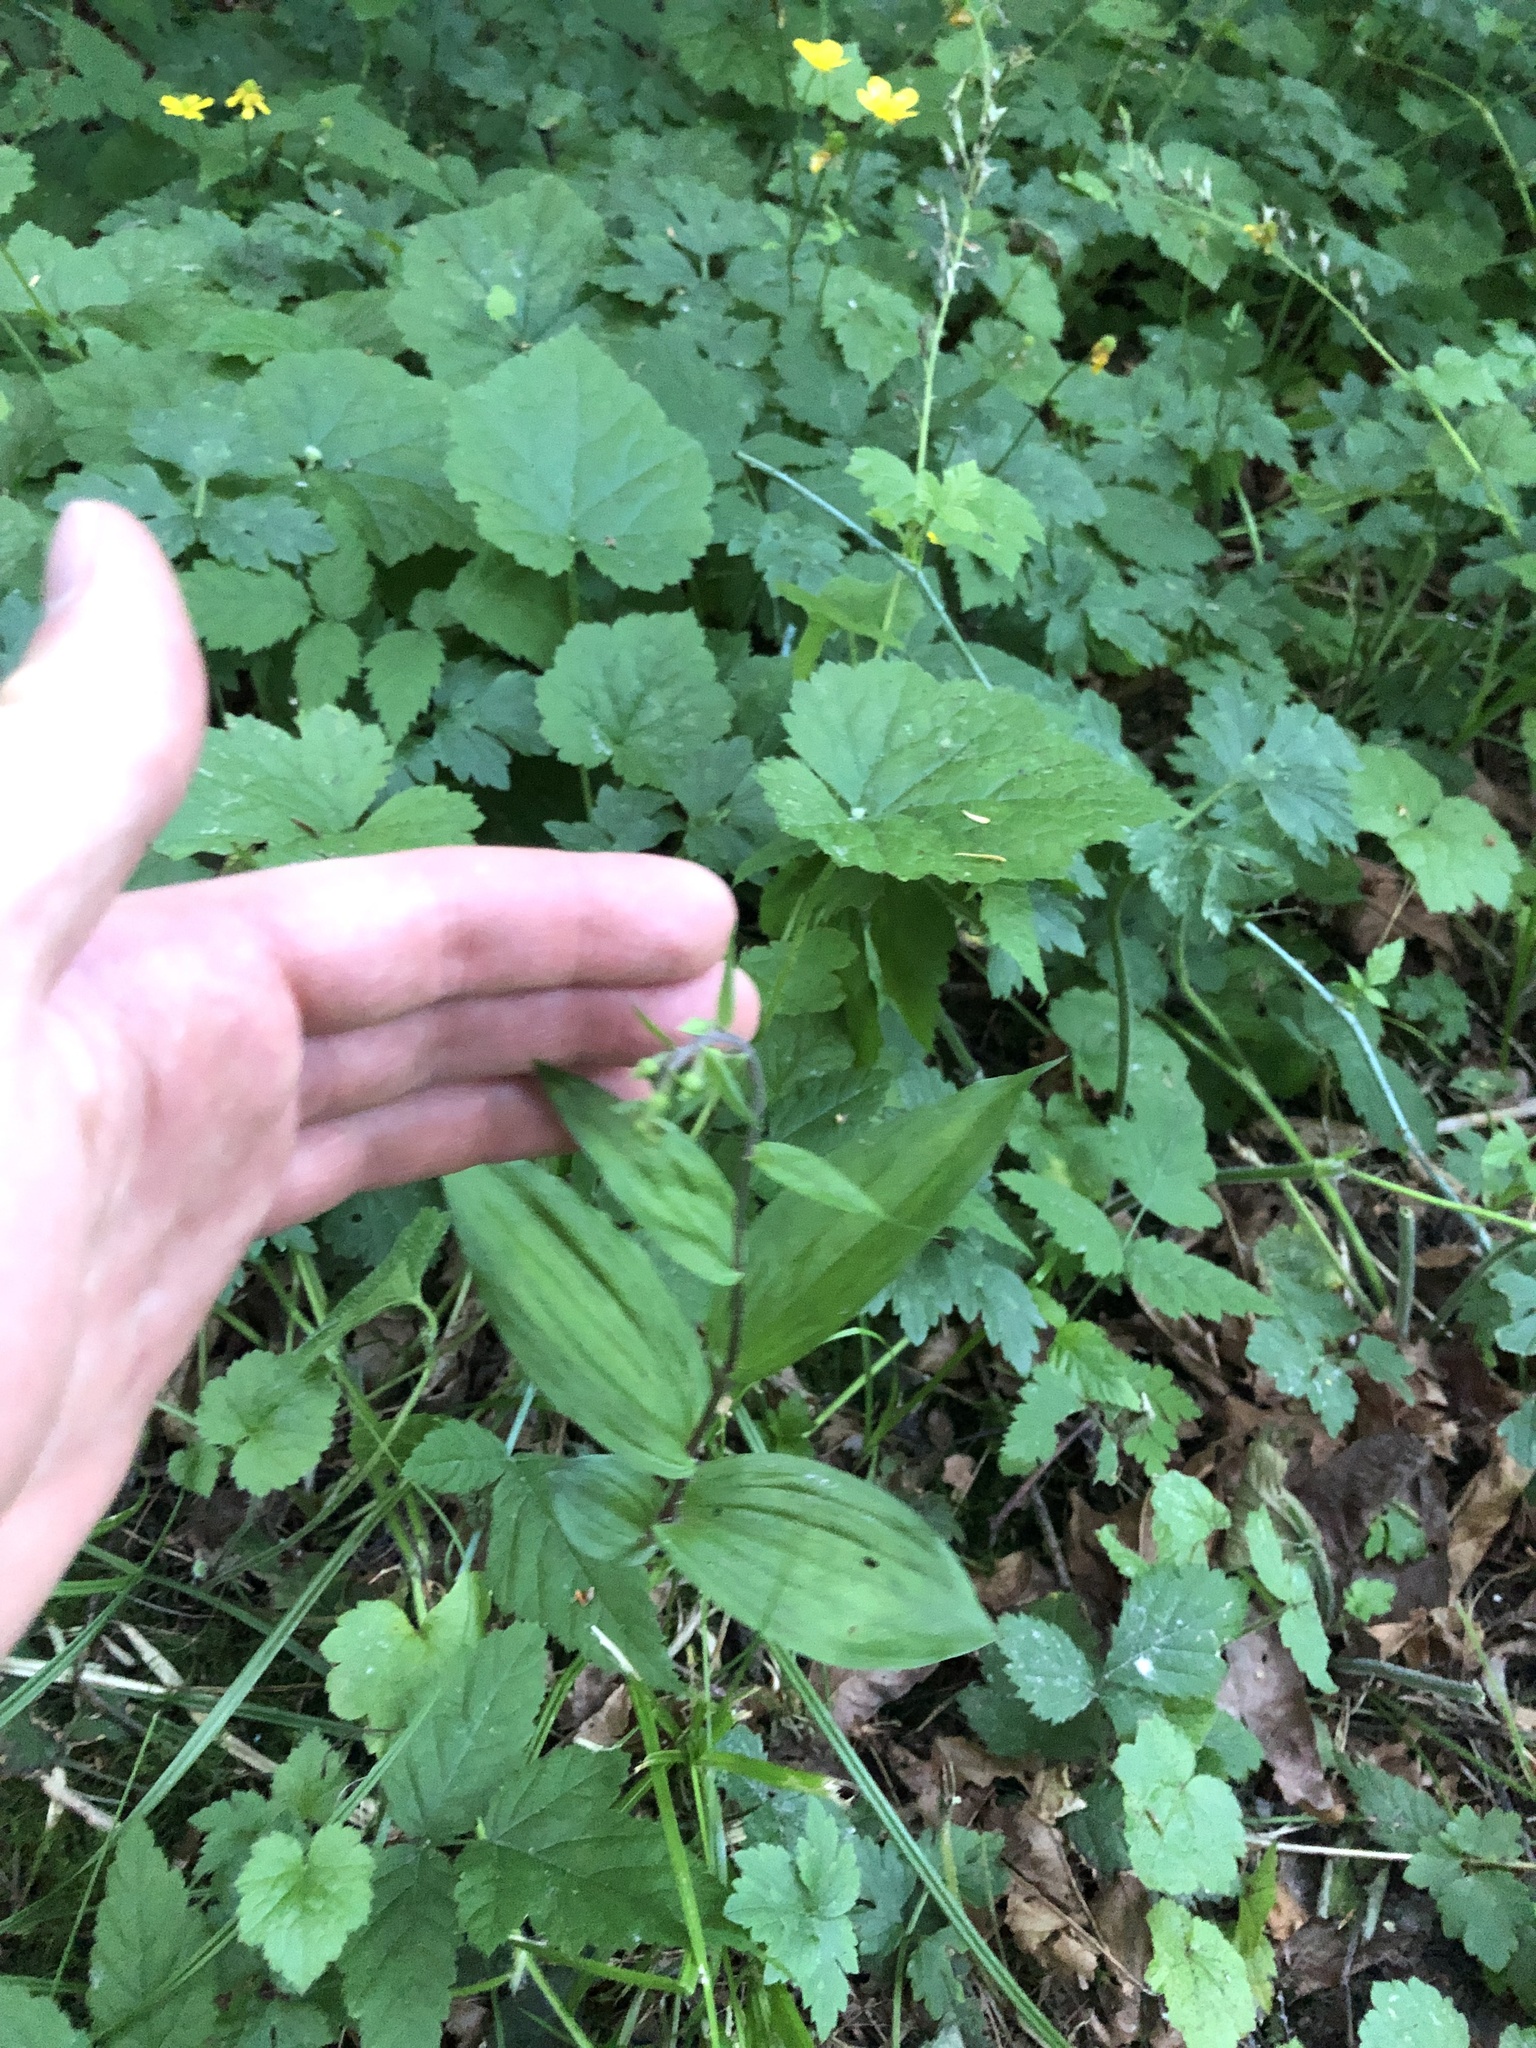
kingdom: Plantae
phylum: Tracheophyta
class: Liliopsida
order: Asparagales
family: Orchidaceae
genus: Epipactis
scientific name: Epipactis helleborine
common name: Broad-leaved helleborine
